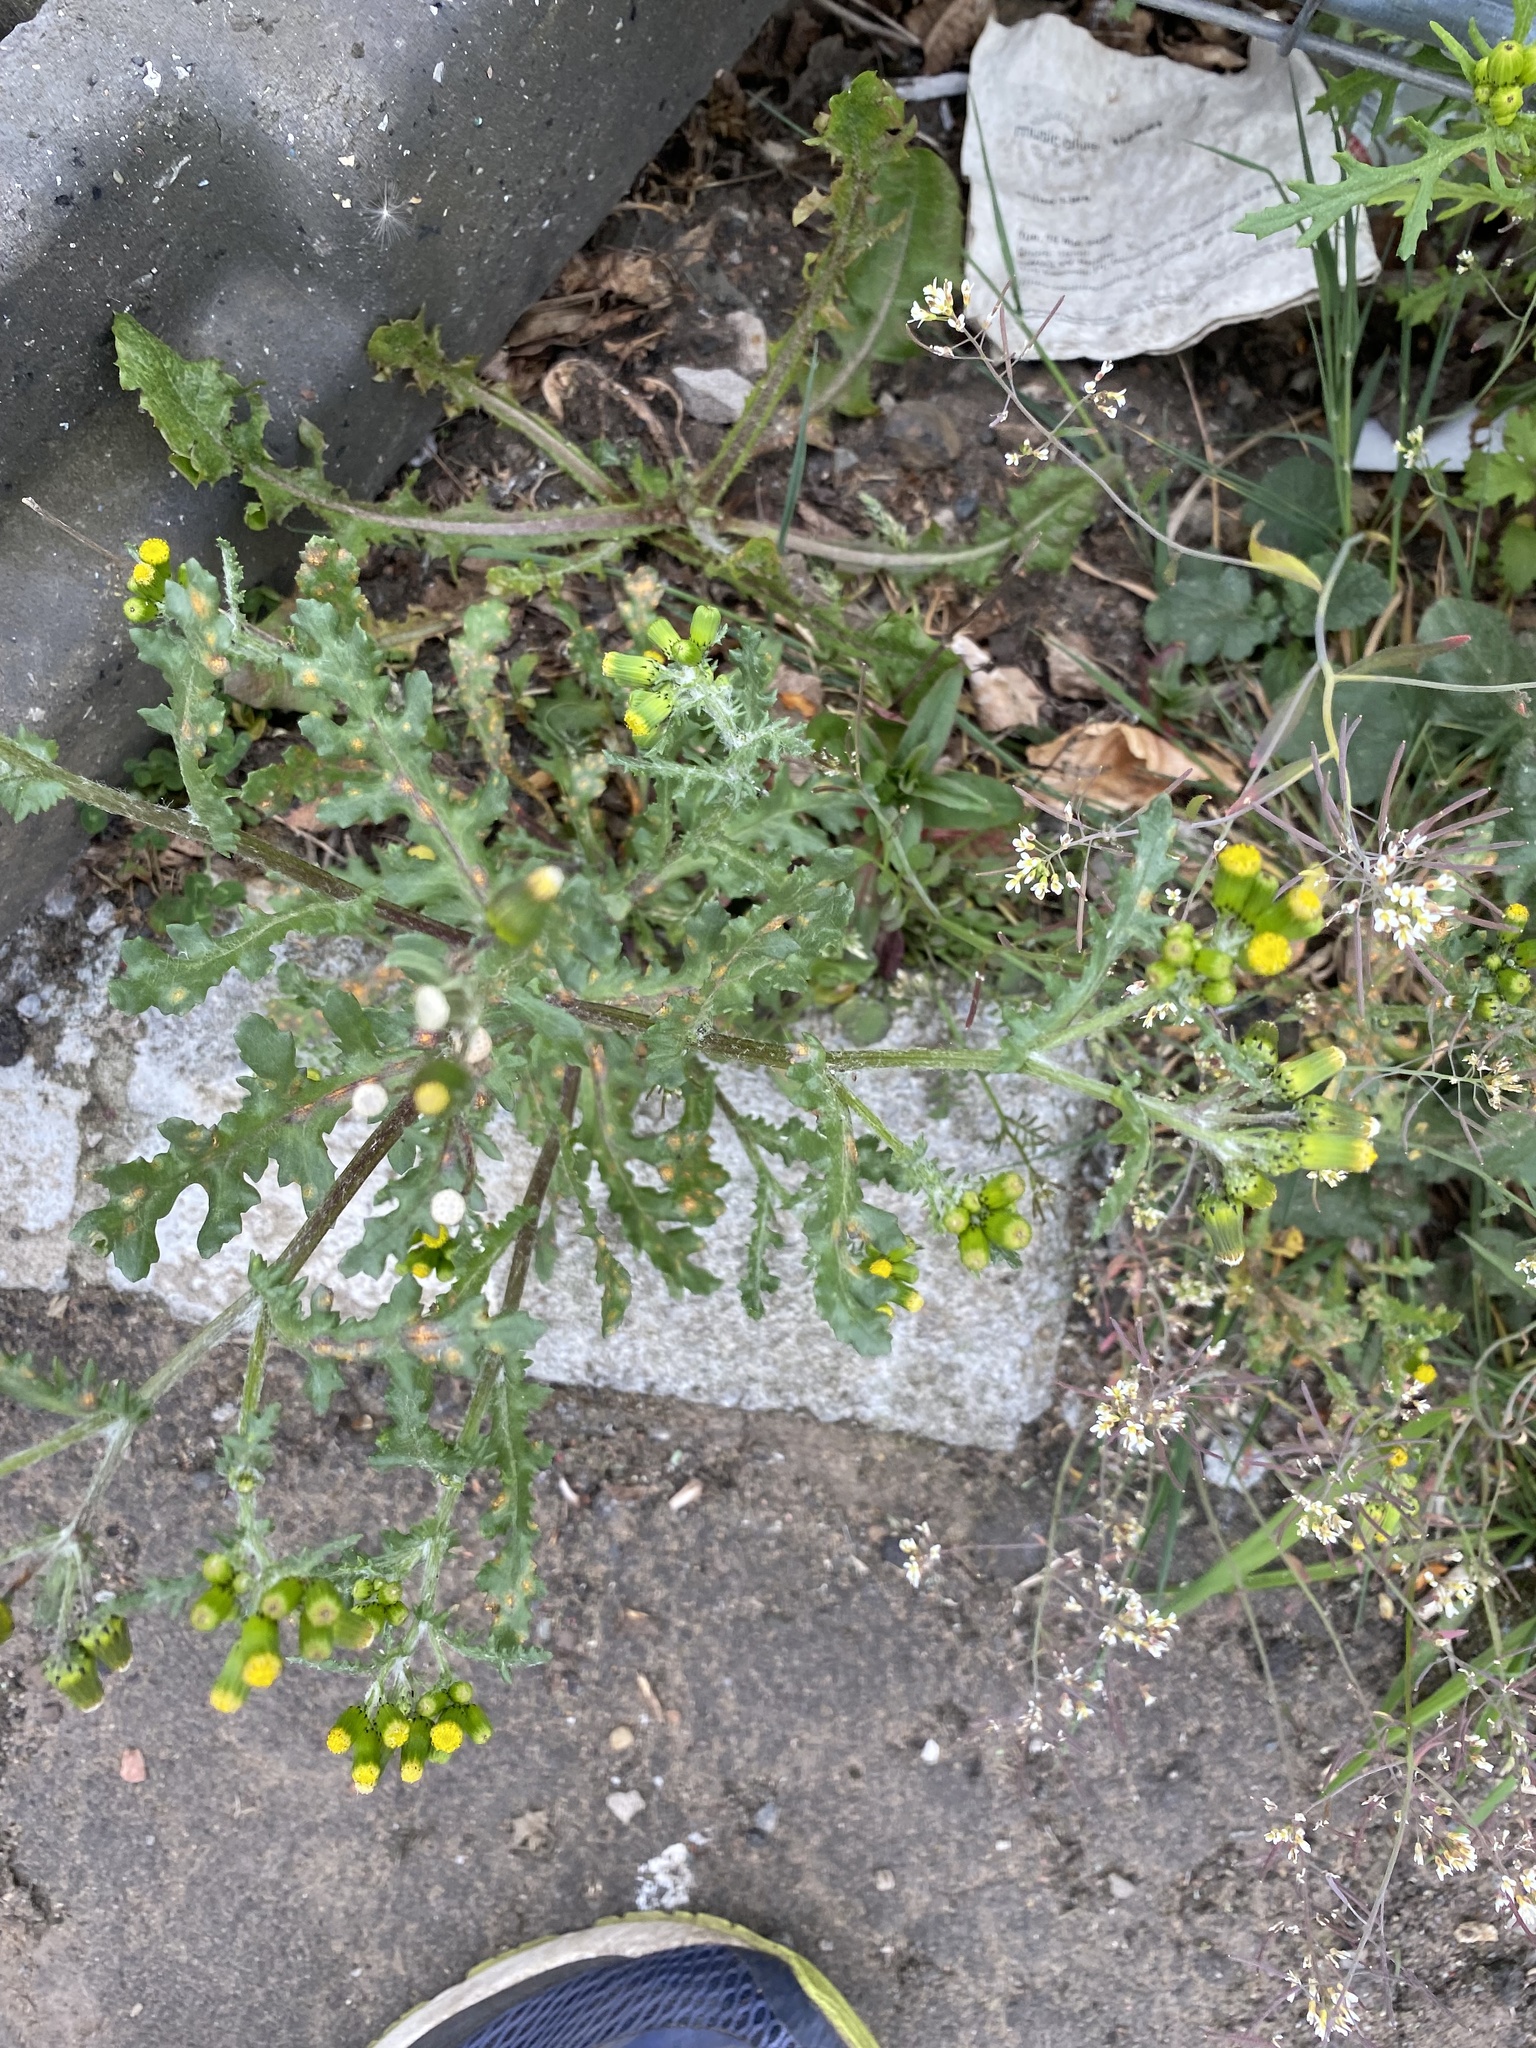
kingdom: Plantae
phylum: Tracheophyta
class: Magnoliopsida
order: Asterales
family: Asteraceae
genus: Senecio
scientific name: Senecio vulgaris
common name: Old-man-in-the-spring
